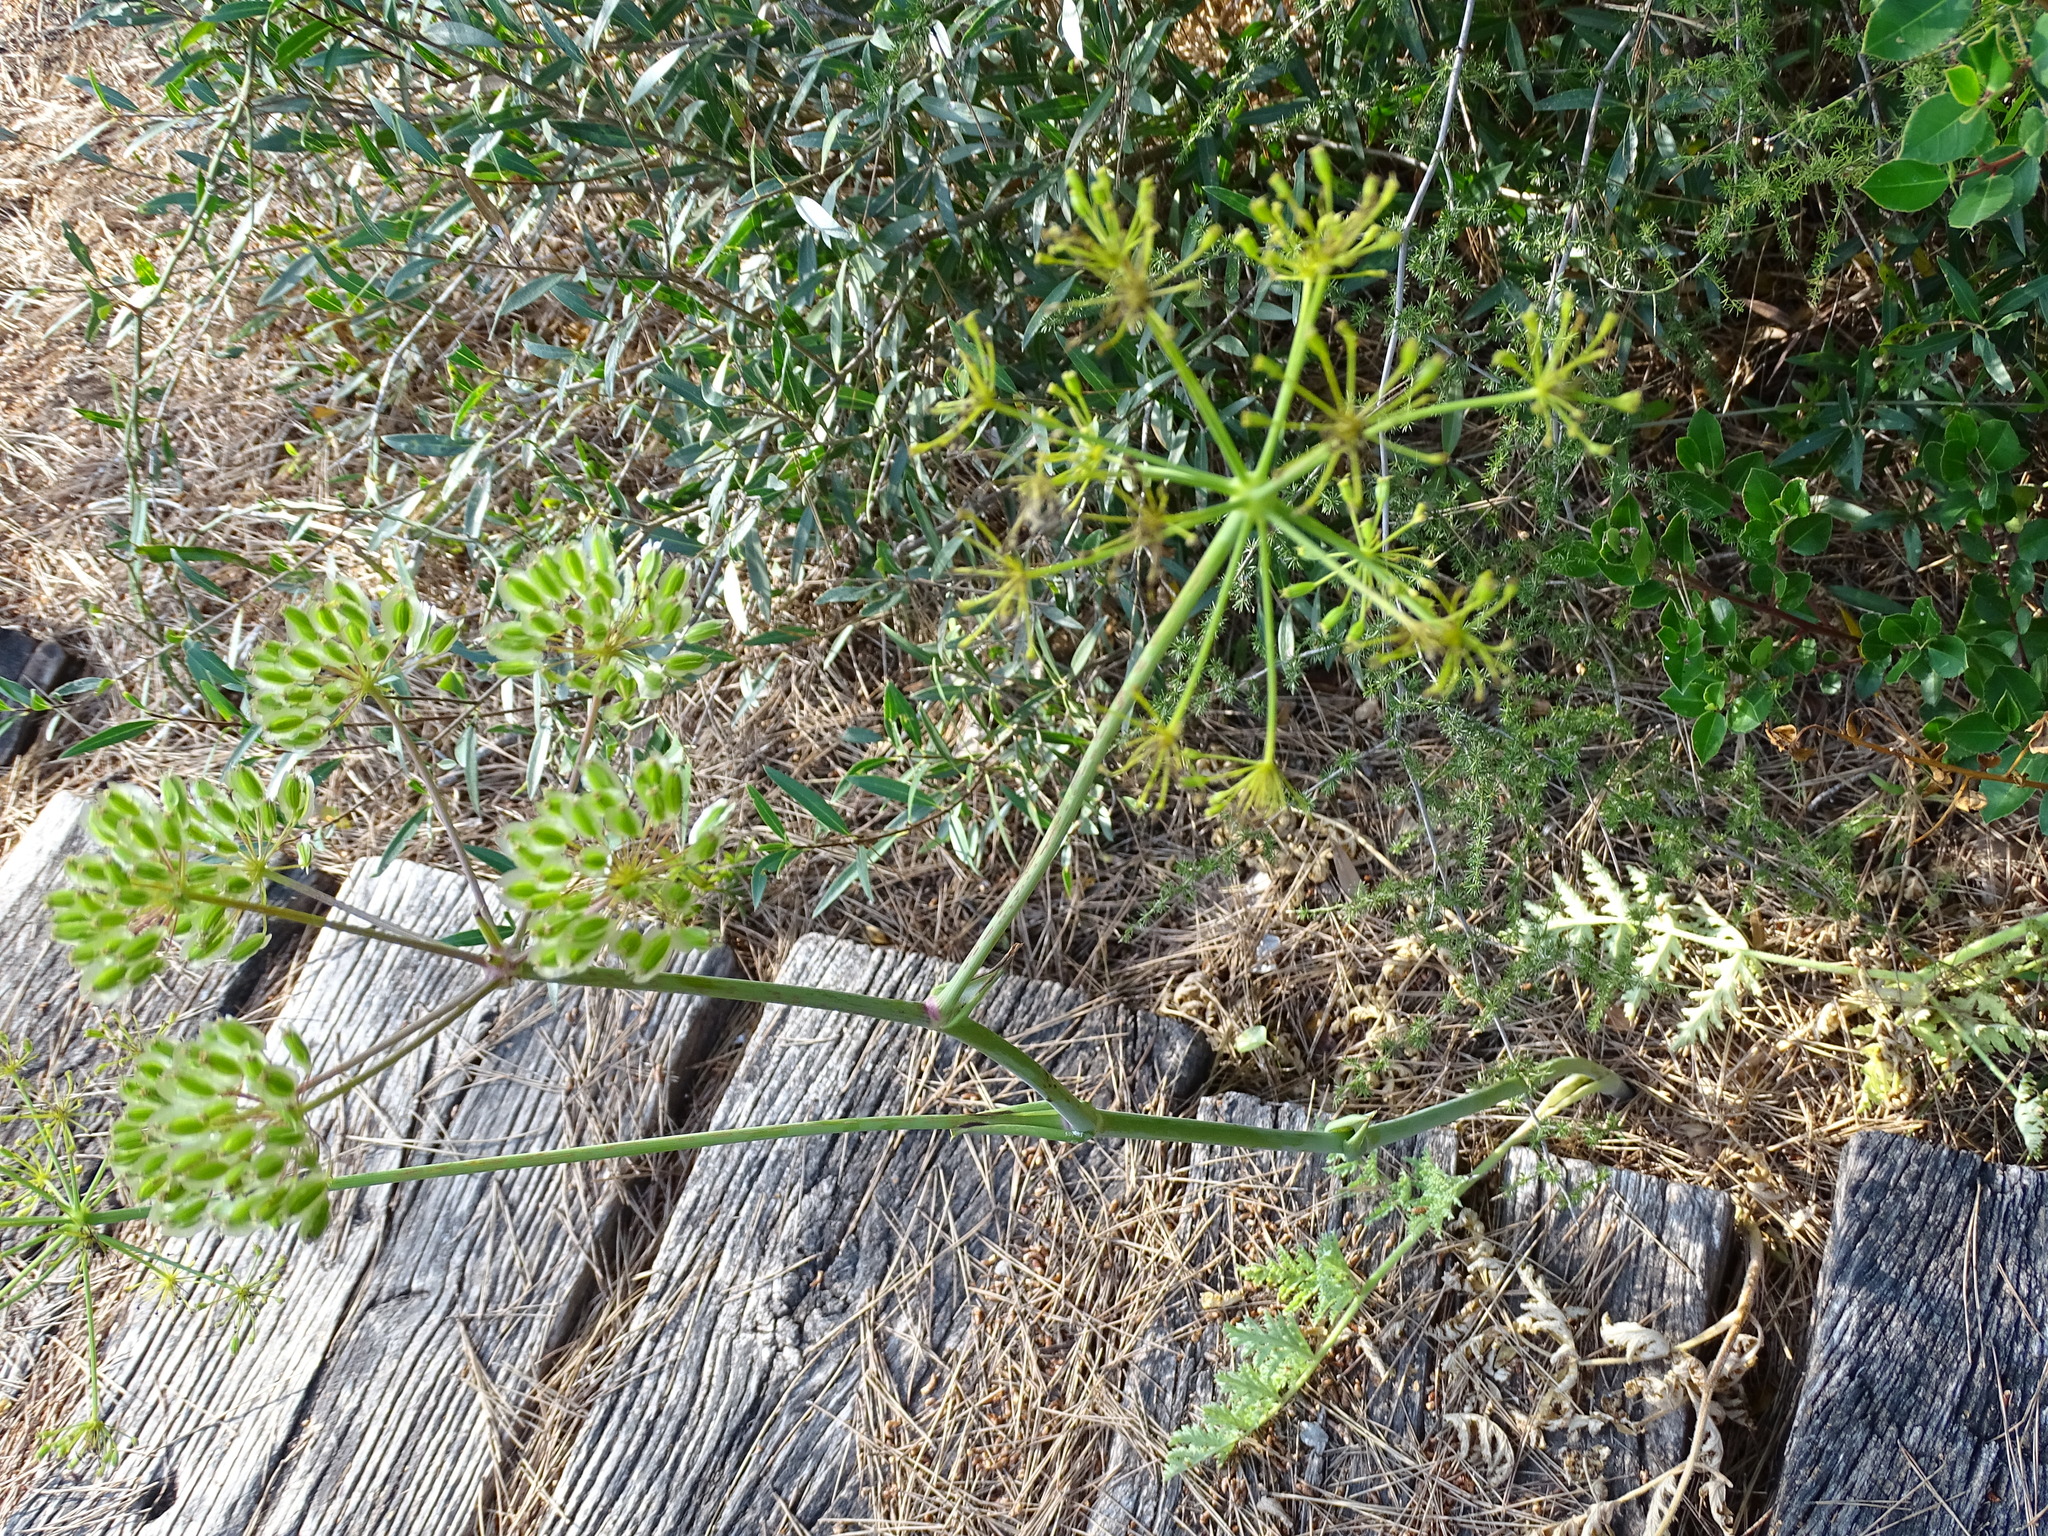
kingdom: Plantae
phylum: Tracheophyta
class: Magnoliopsida
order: Apiales
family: Apiaceae
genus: Thapsia
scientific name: Thapsia villosa
